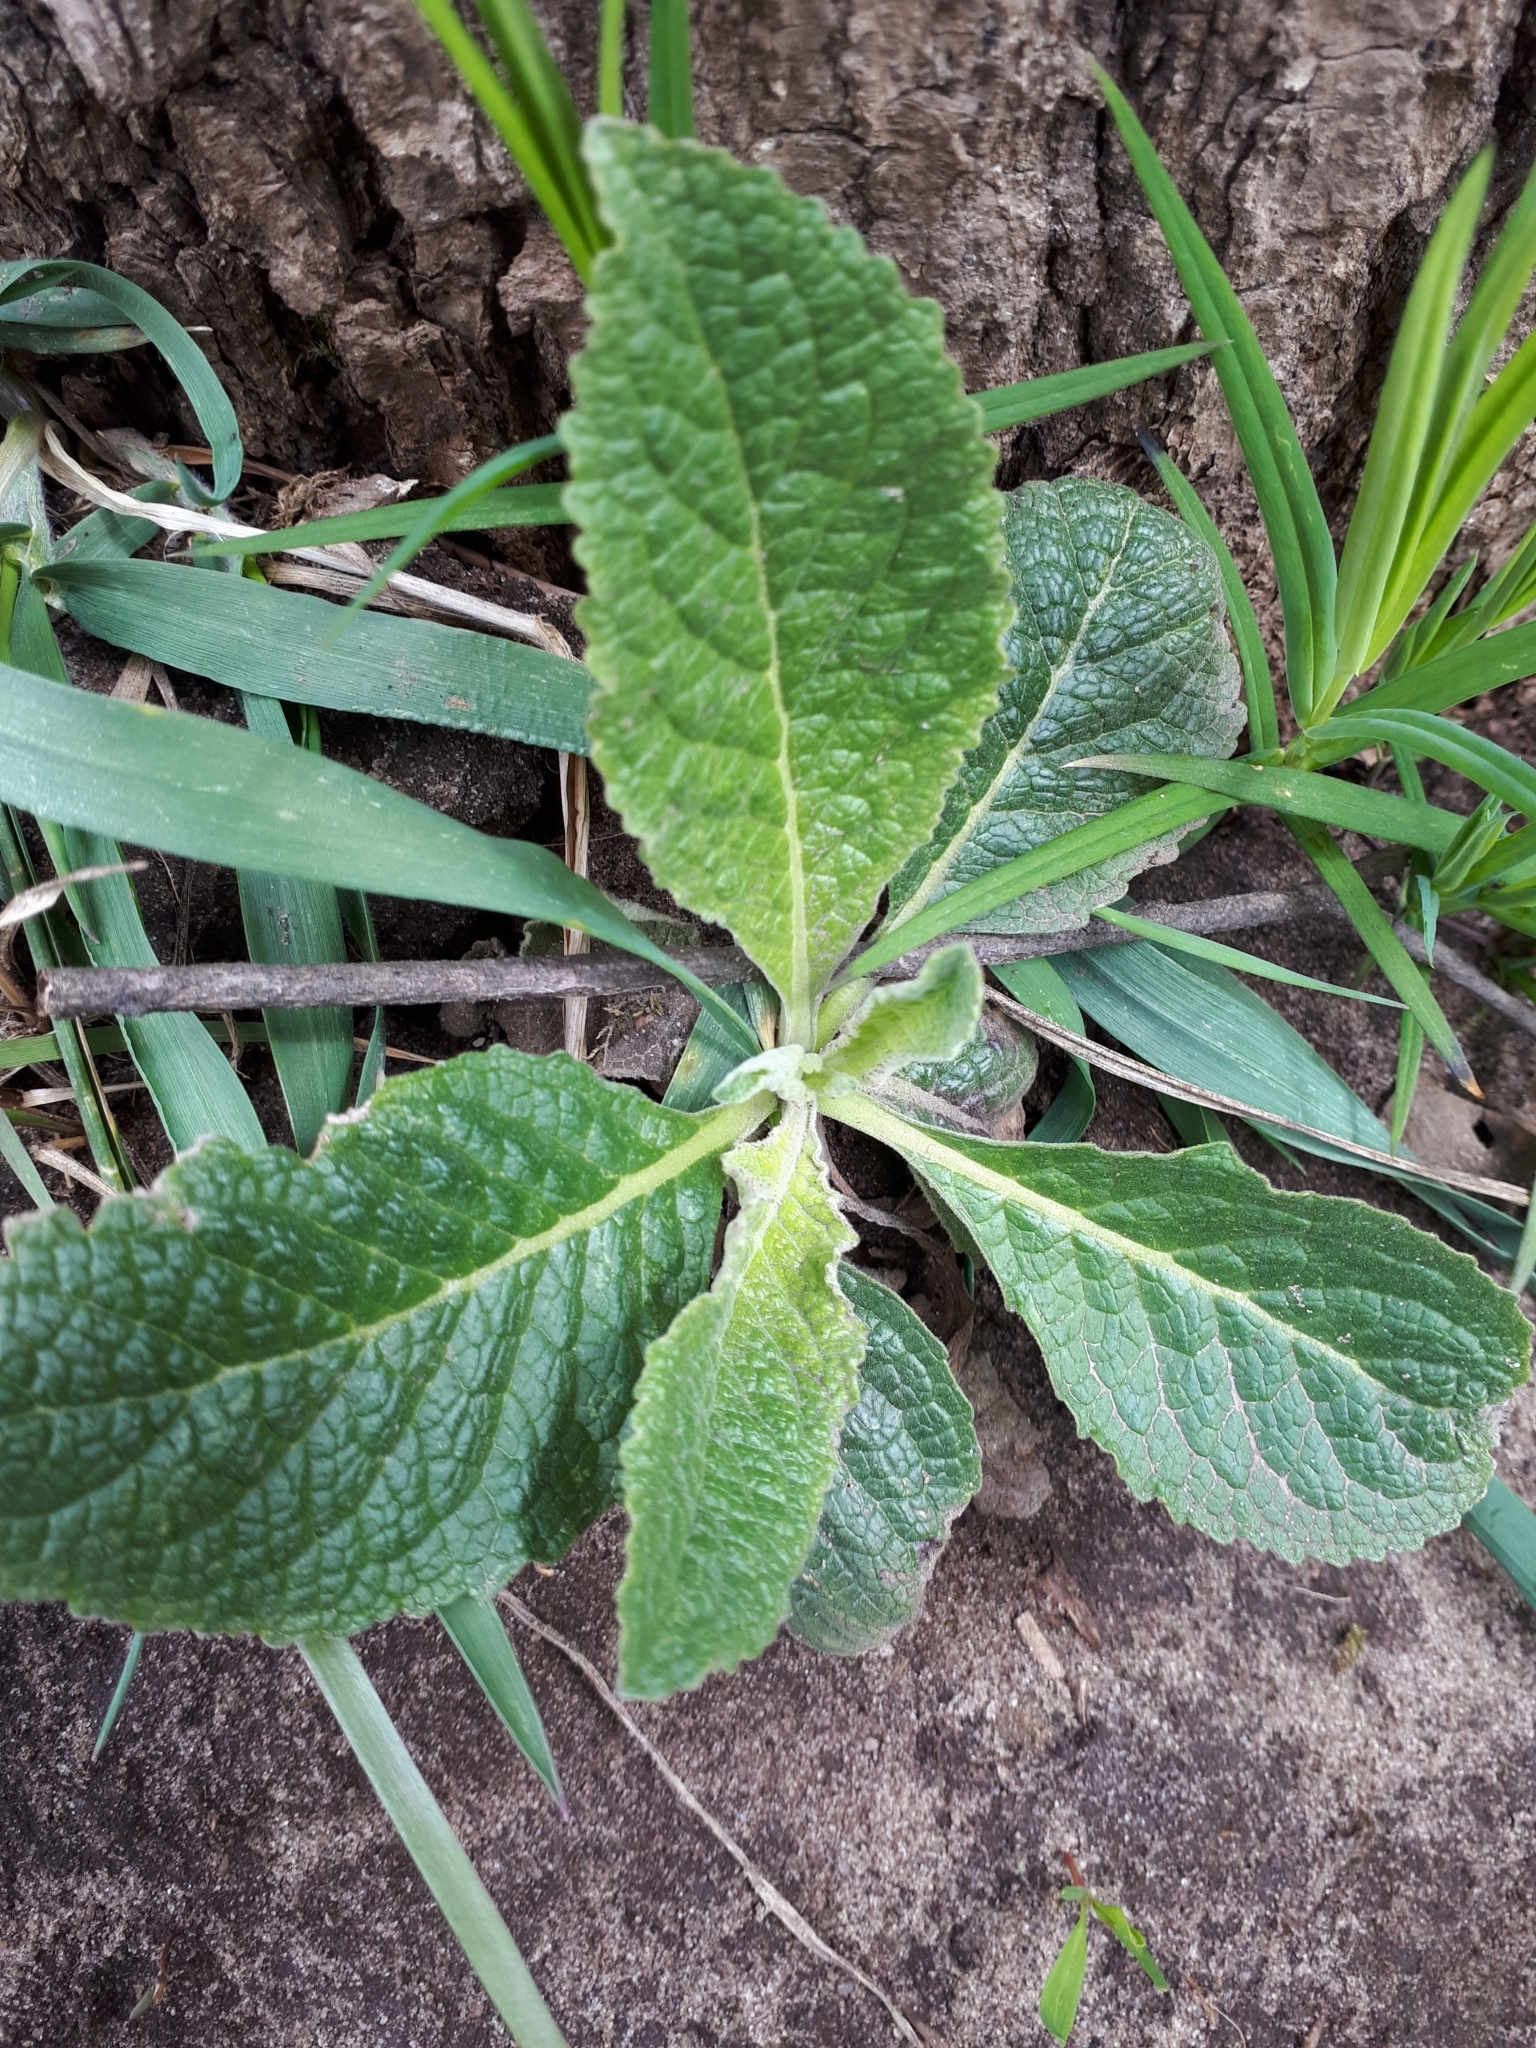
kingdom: Plantae
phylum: Tracheophyta
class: Magnoliopsida
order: Lamiales
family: Scrophulariaceae
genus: Verbascum
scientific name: Verbascum lychnitis
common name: White mullein
